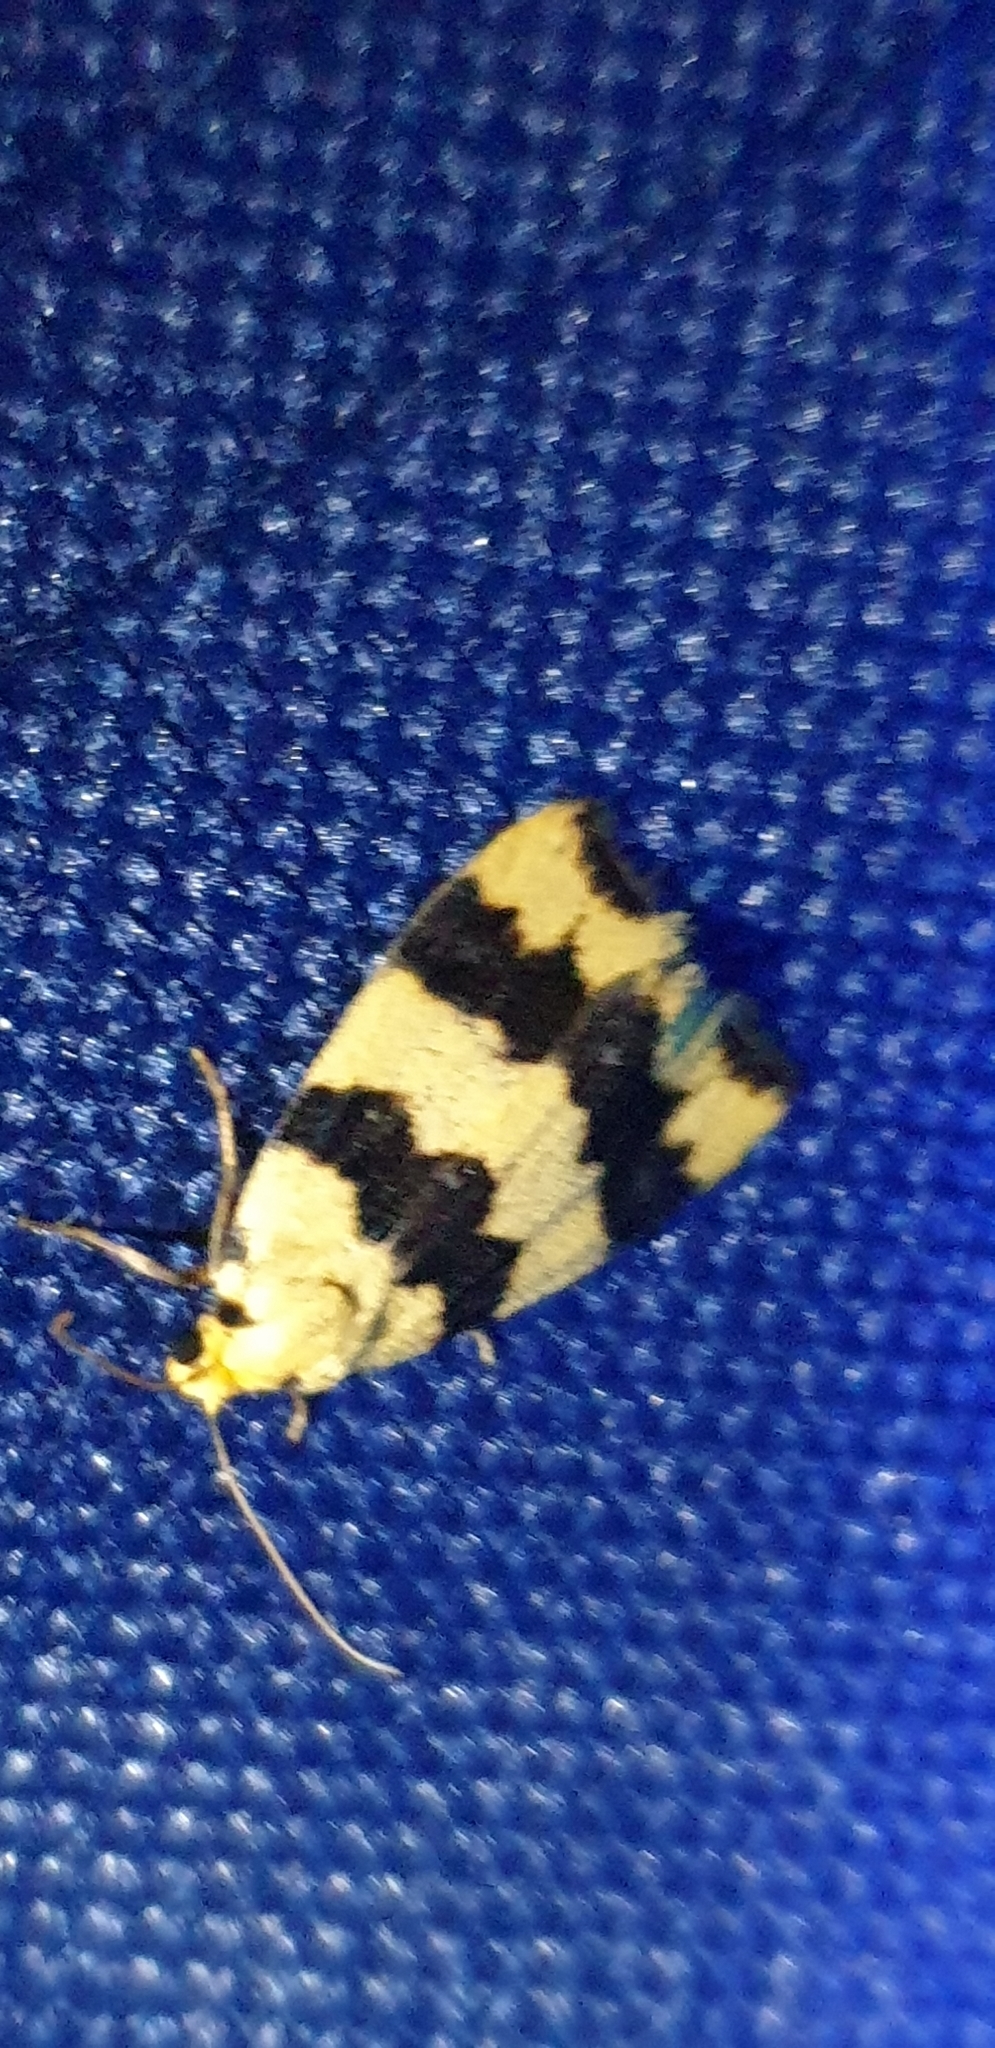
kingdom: Animalia
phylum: Arthropoda
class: Insecta
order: Lepidoptera
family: Erebidae
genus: Termessa
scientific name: Termessa congrua
